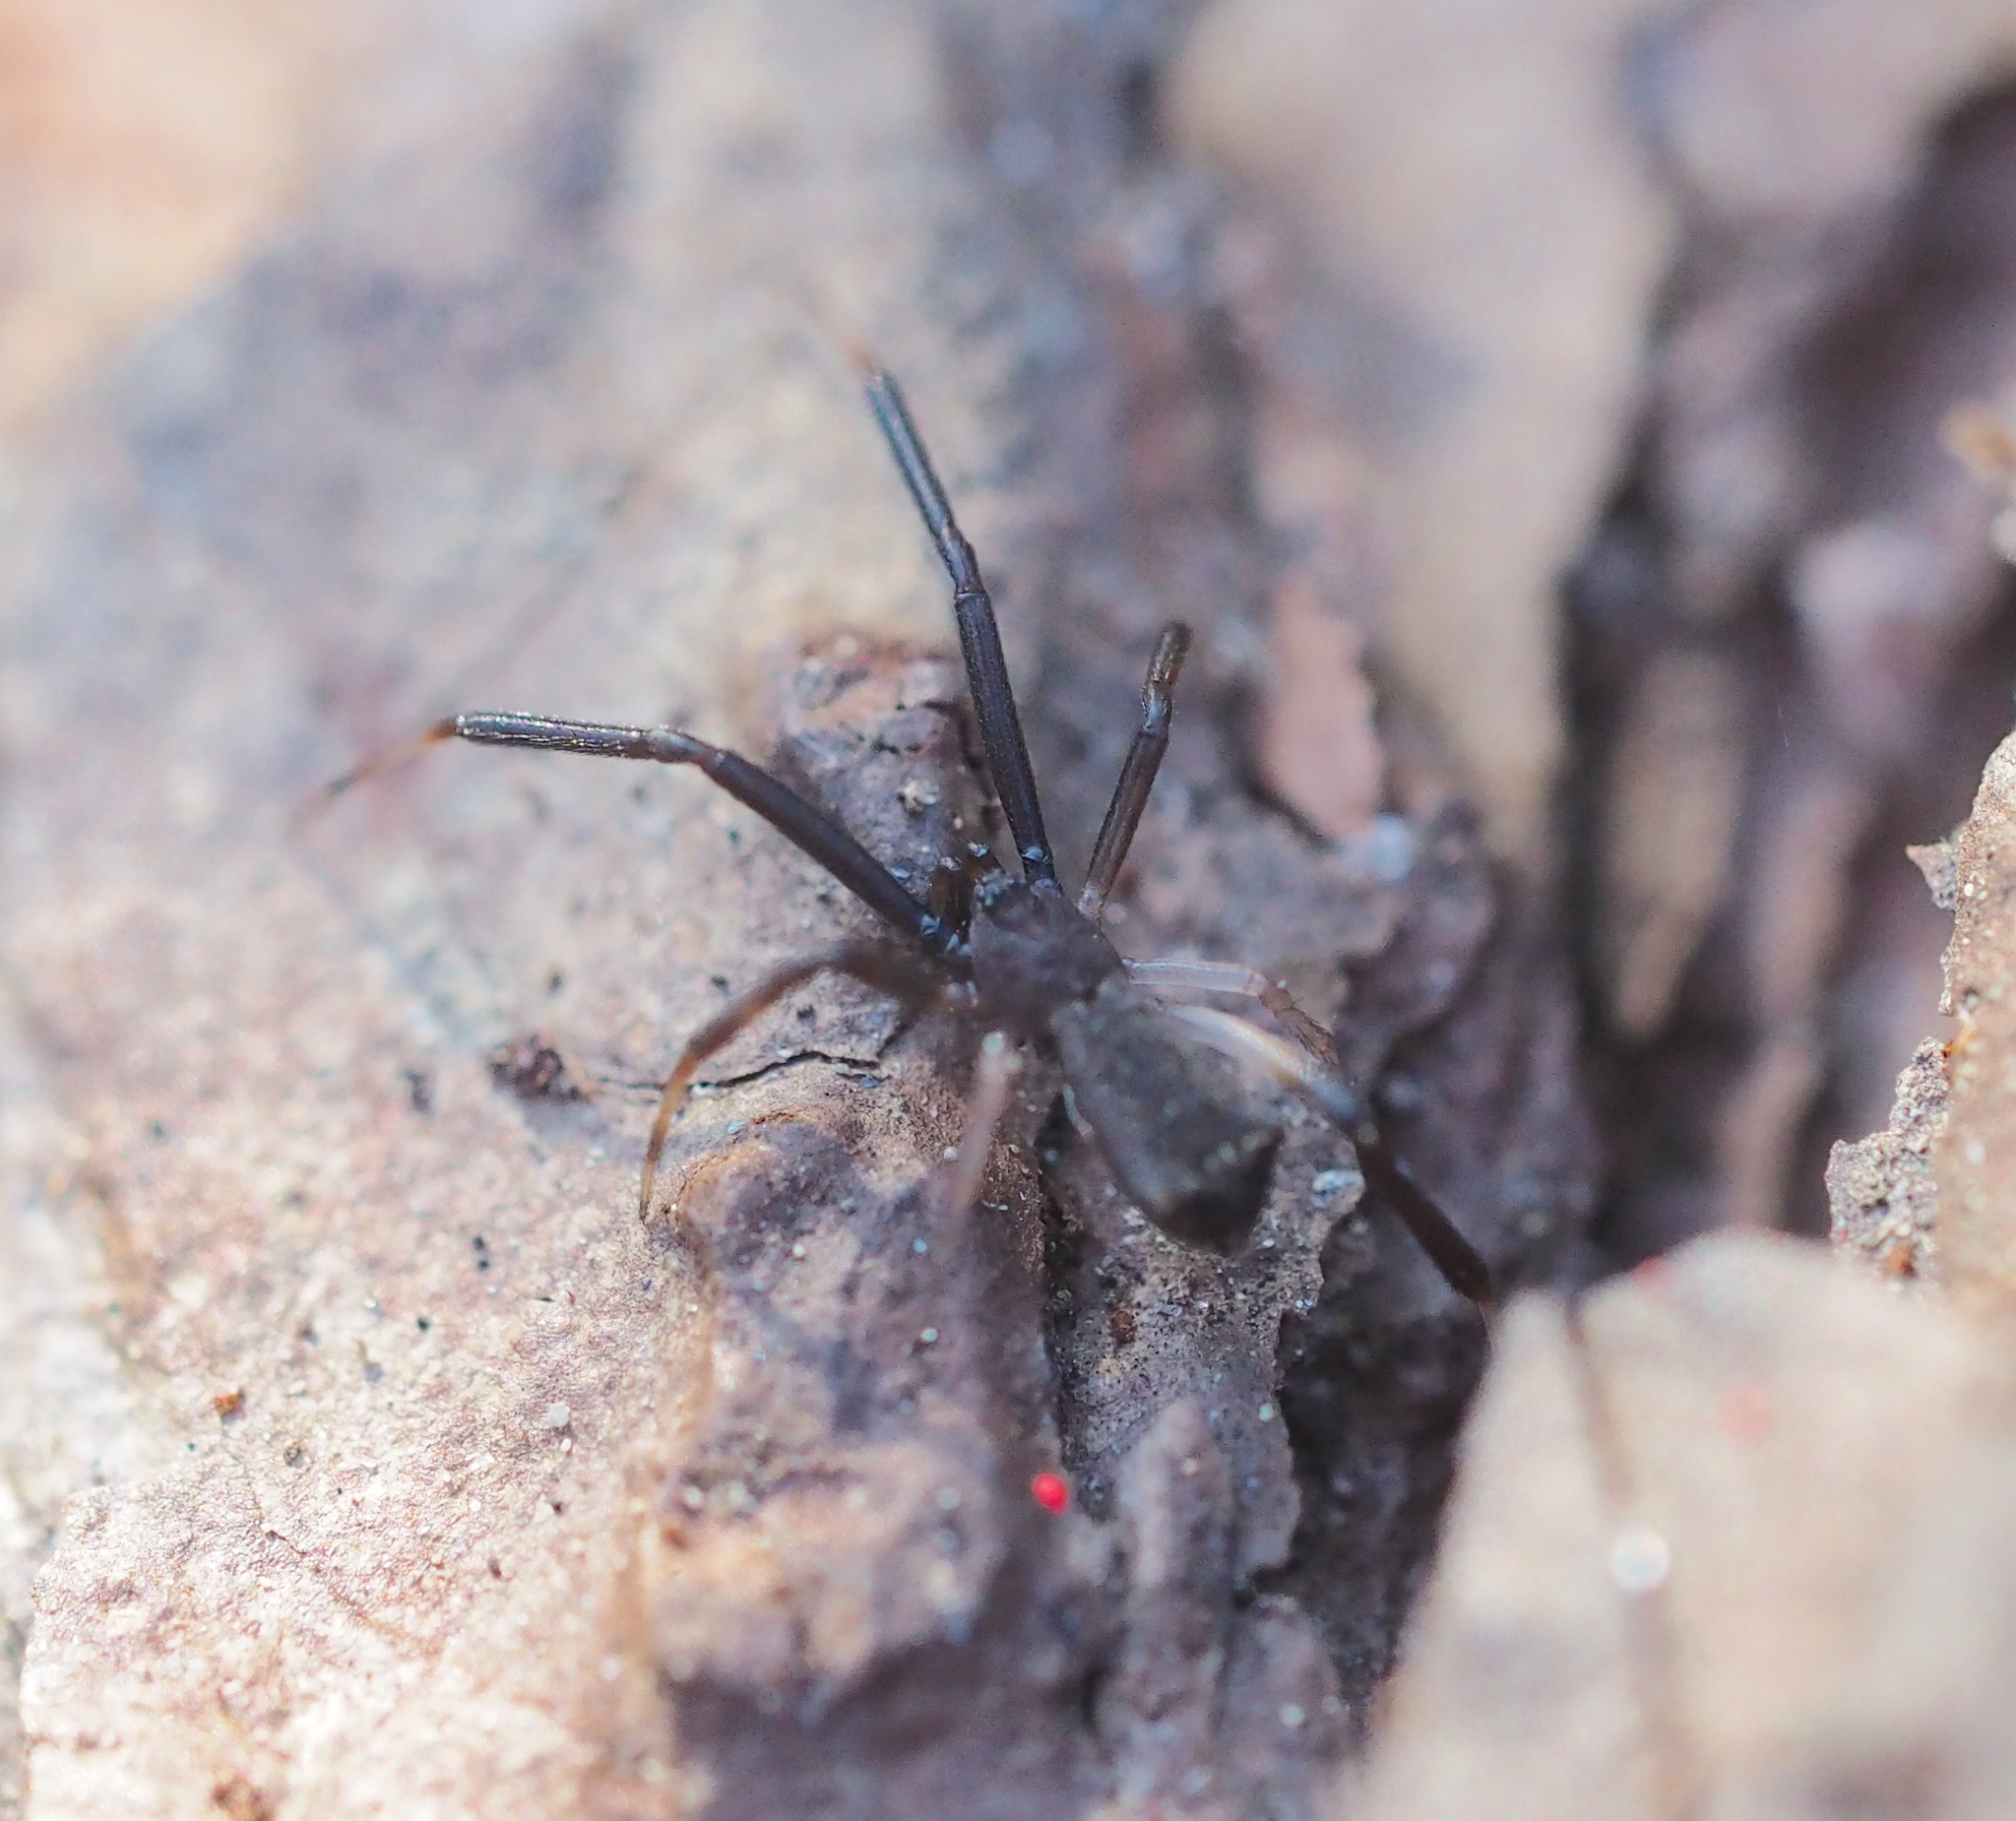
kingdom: Animalia
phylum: Arthropoda
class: Arachnida
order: Araneae
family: Theridiidae
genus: Episinus
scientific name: Episinus truncatus
